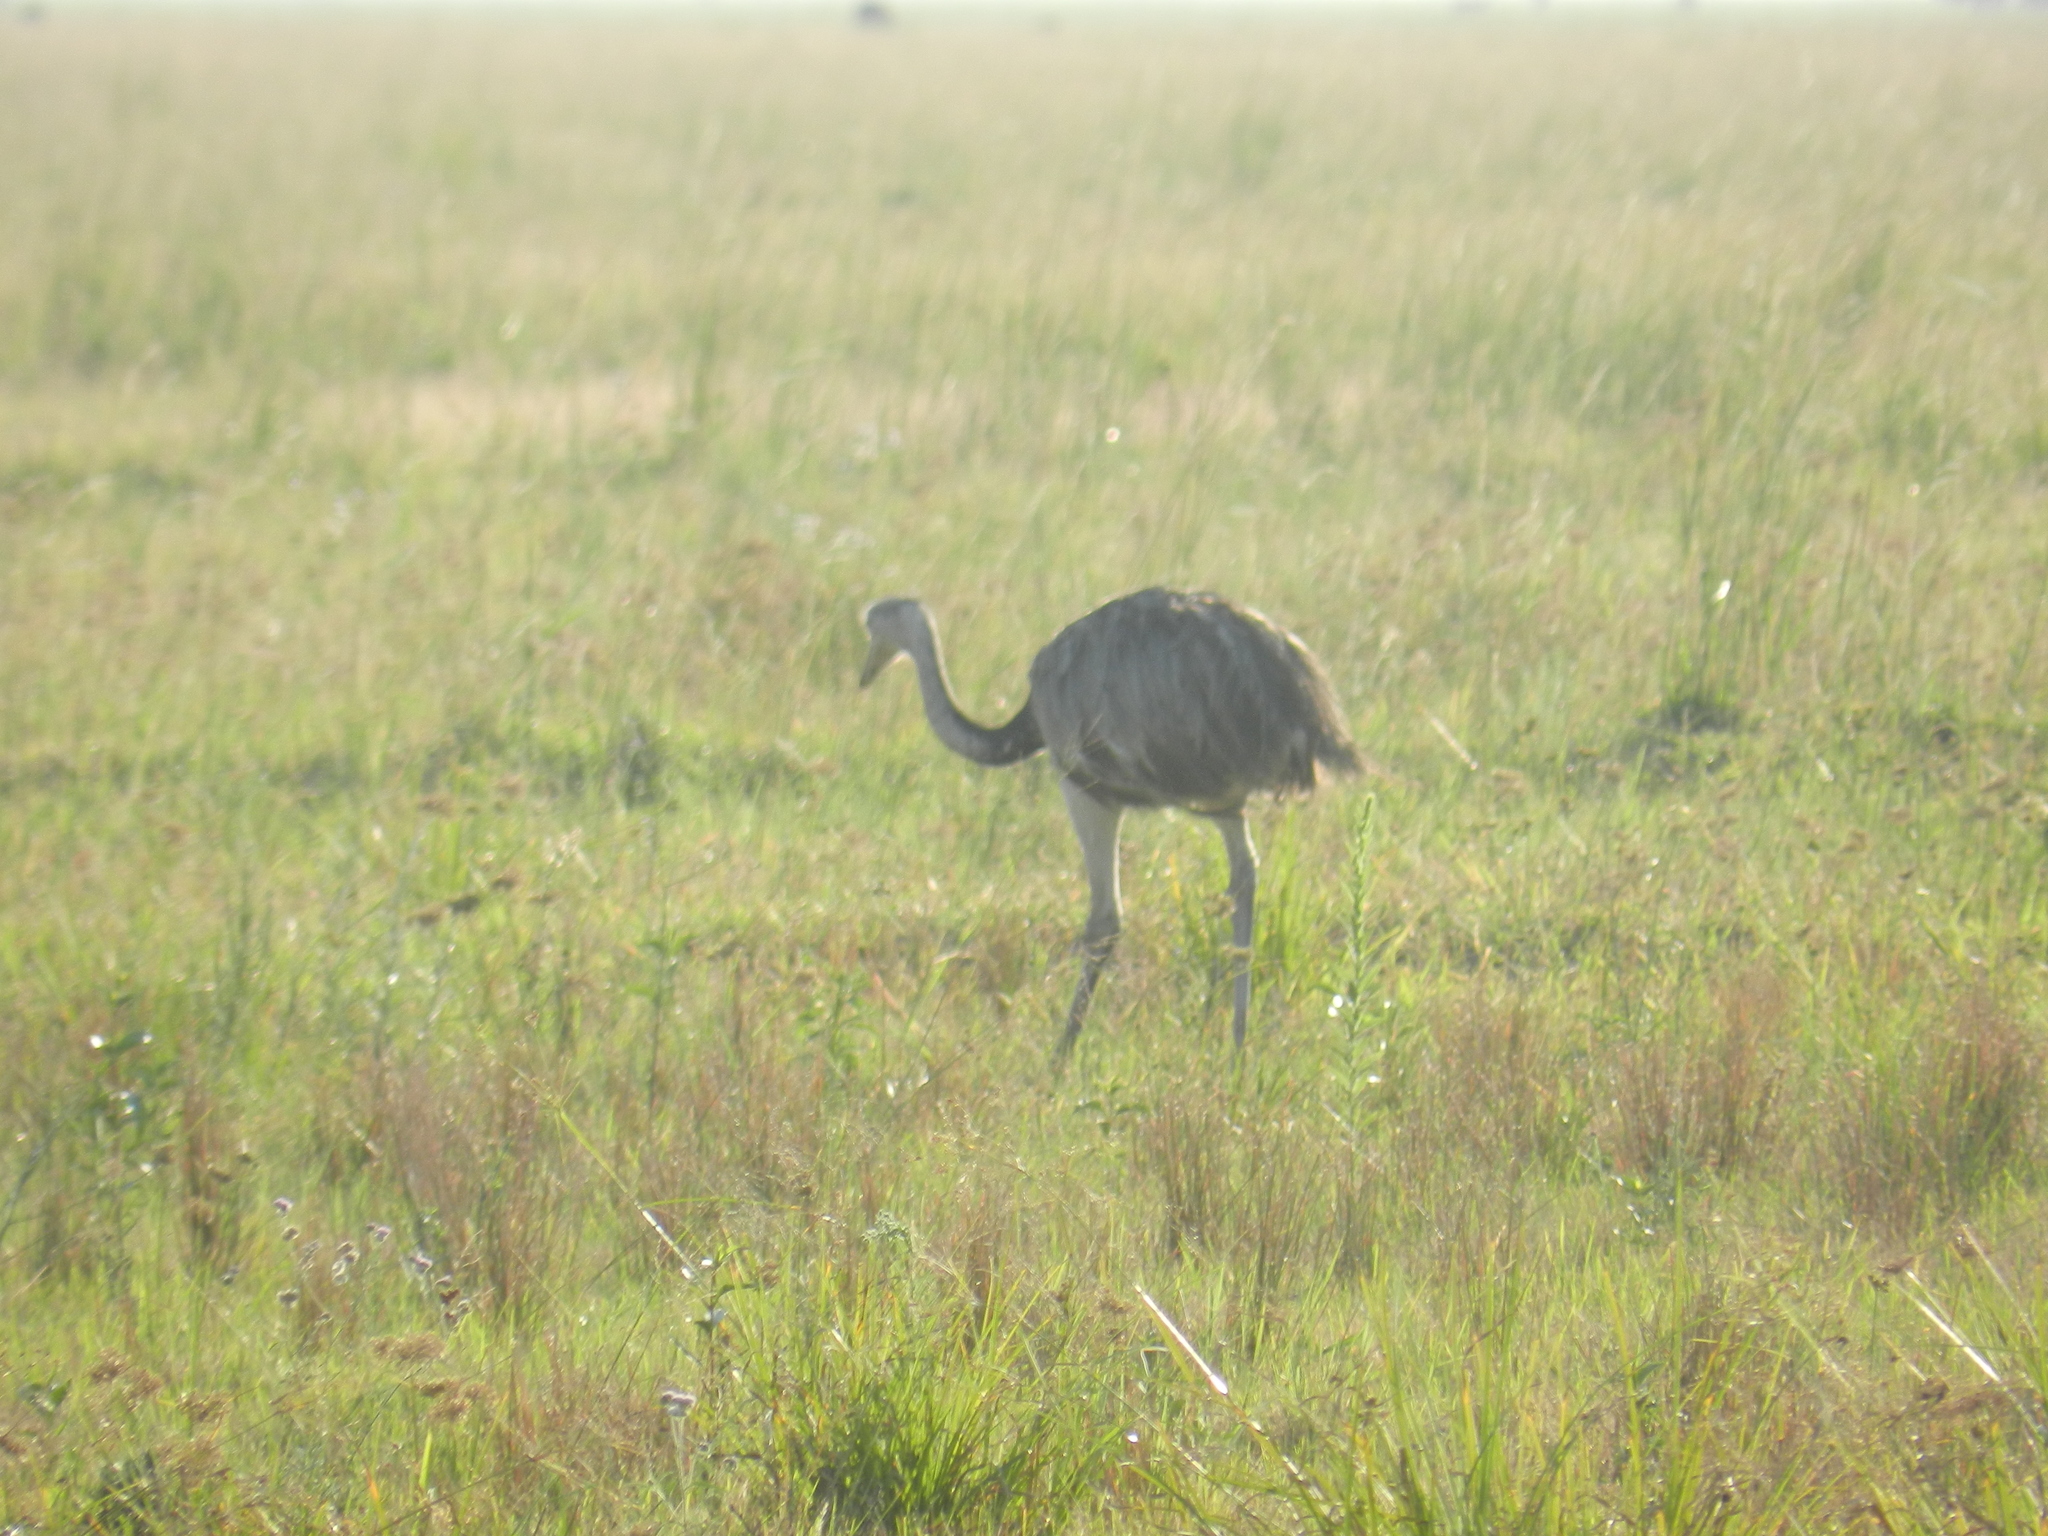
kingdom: Animalia
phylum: Chordata
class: Aves
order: Rheiformes
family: Rheidae
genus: Rhea
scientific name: Rhea americana
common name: Greater rhea
